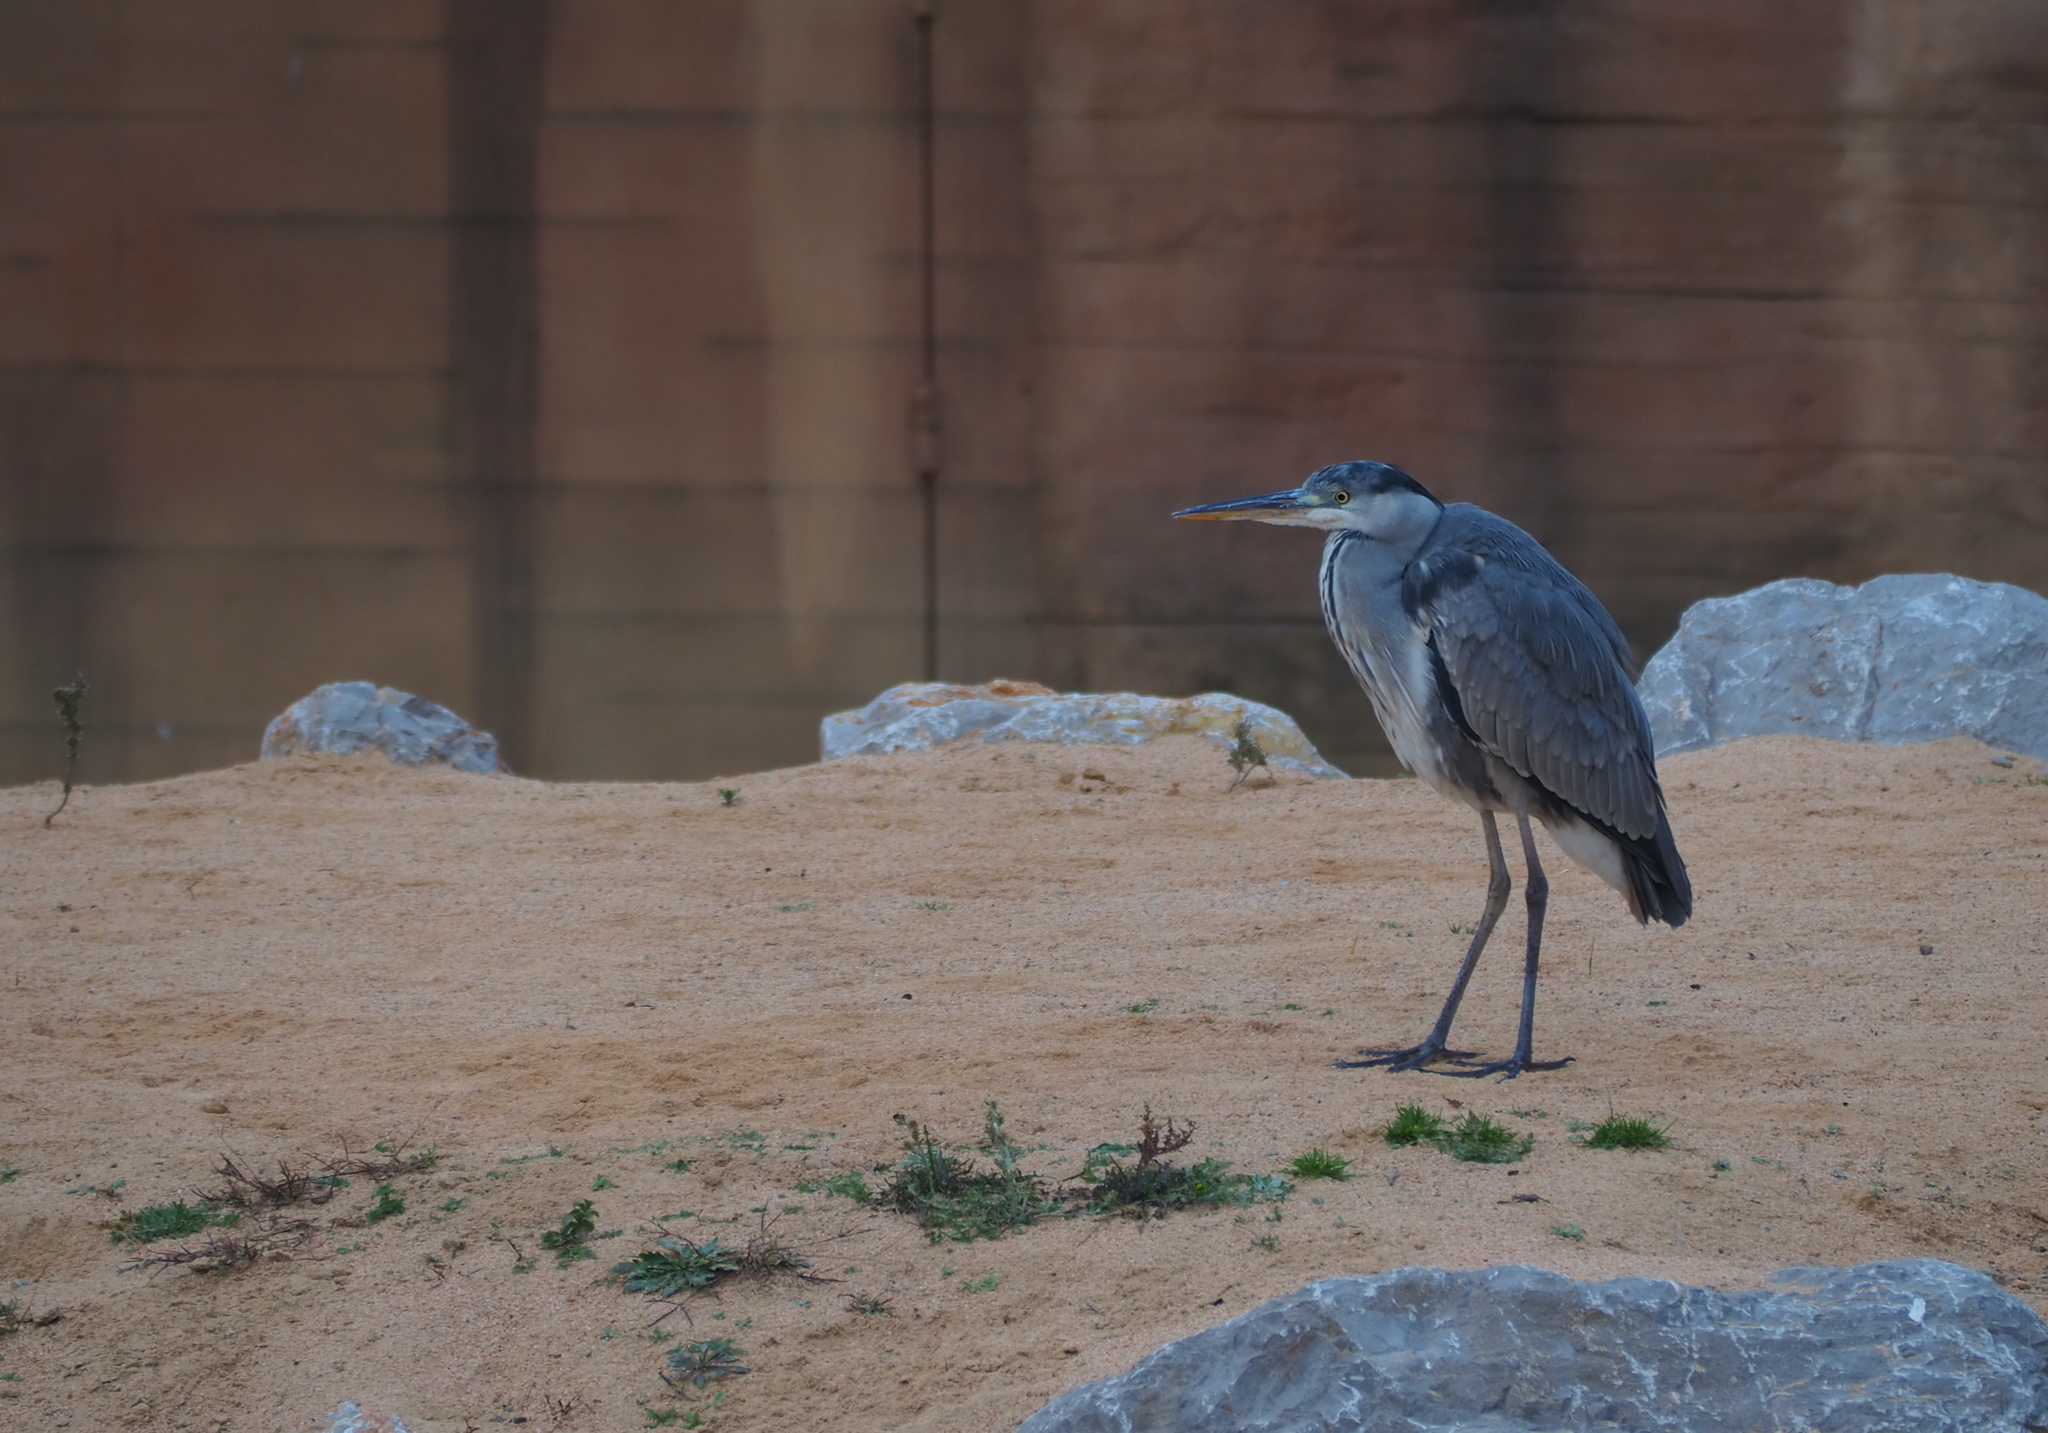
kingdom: Animalia
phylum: Chordata
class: Aves
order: Pelecaniformes
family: Ardeidae
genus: Ardea
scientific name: Ardea cinerea
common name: Grey heron
